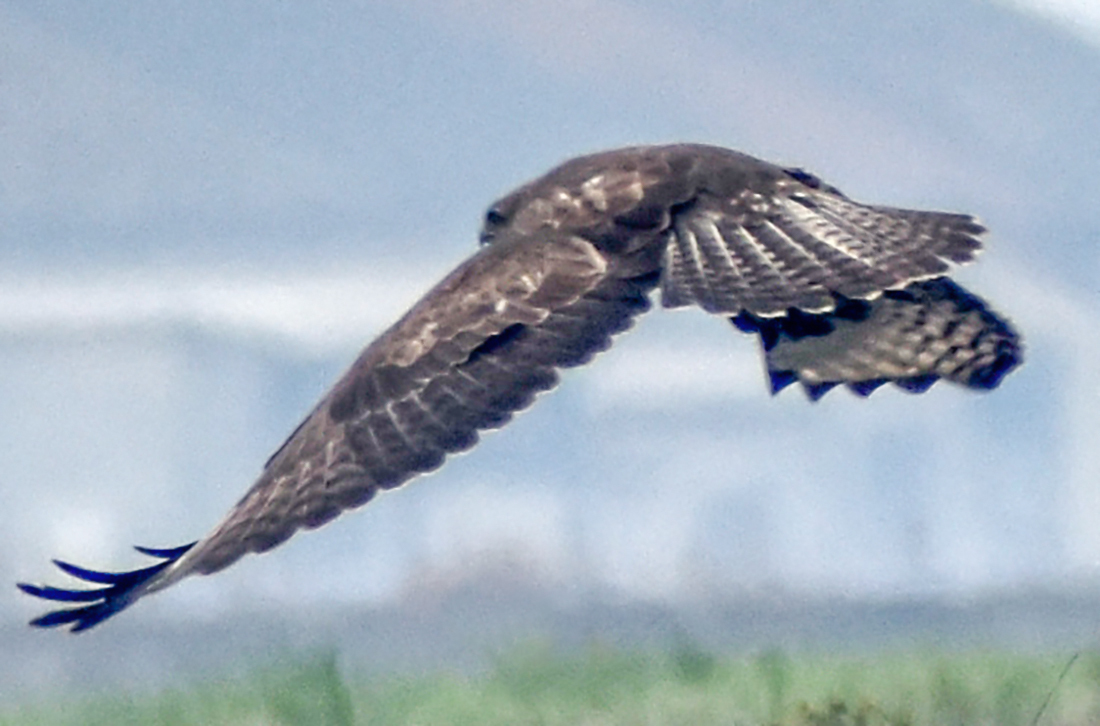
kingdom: Animalia
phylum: Chordata
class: Aves
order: Accipitriformes
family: Accipitridae
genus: Buteo
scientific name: Buteo buteo
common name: Common buzzard
